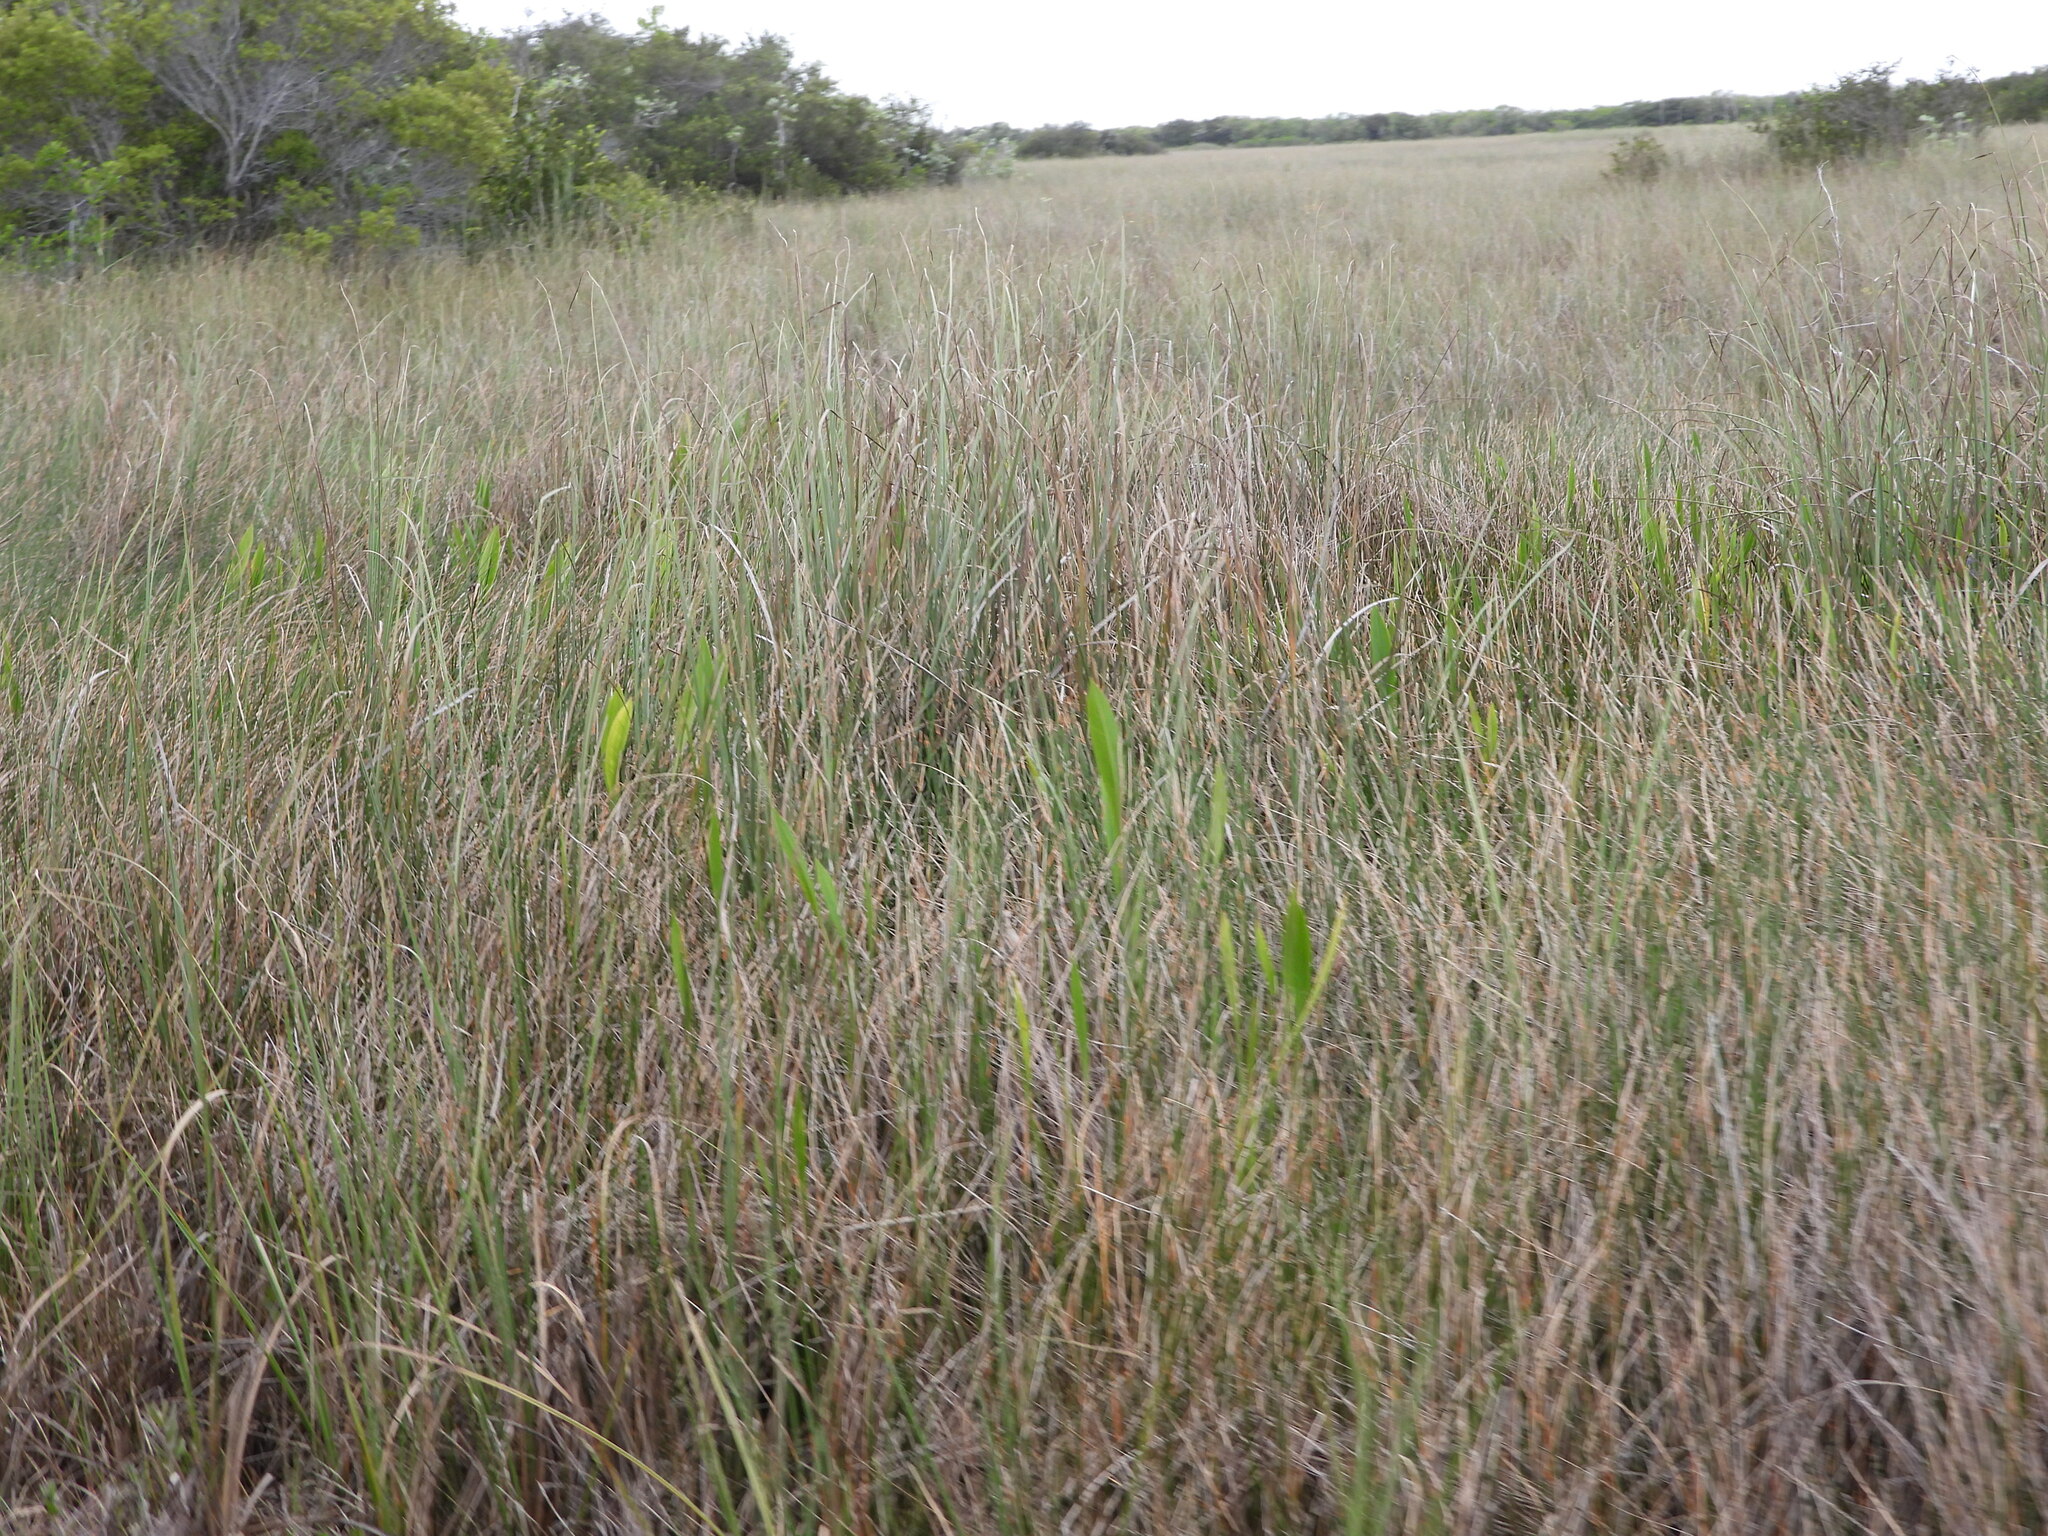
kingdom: Plantae
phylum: Tracheophyta
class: Liliopsida
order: Poales
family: Cyperaceae
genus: Cladium
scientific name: Cladium mariscus
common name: Great fen-sedge
